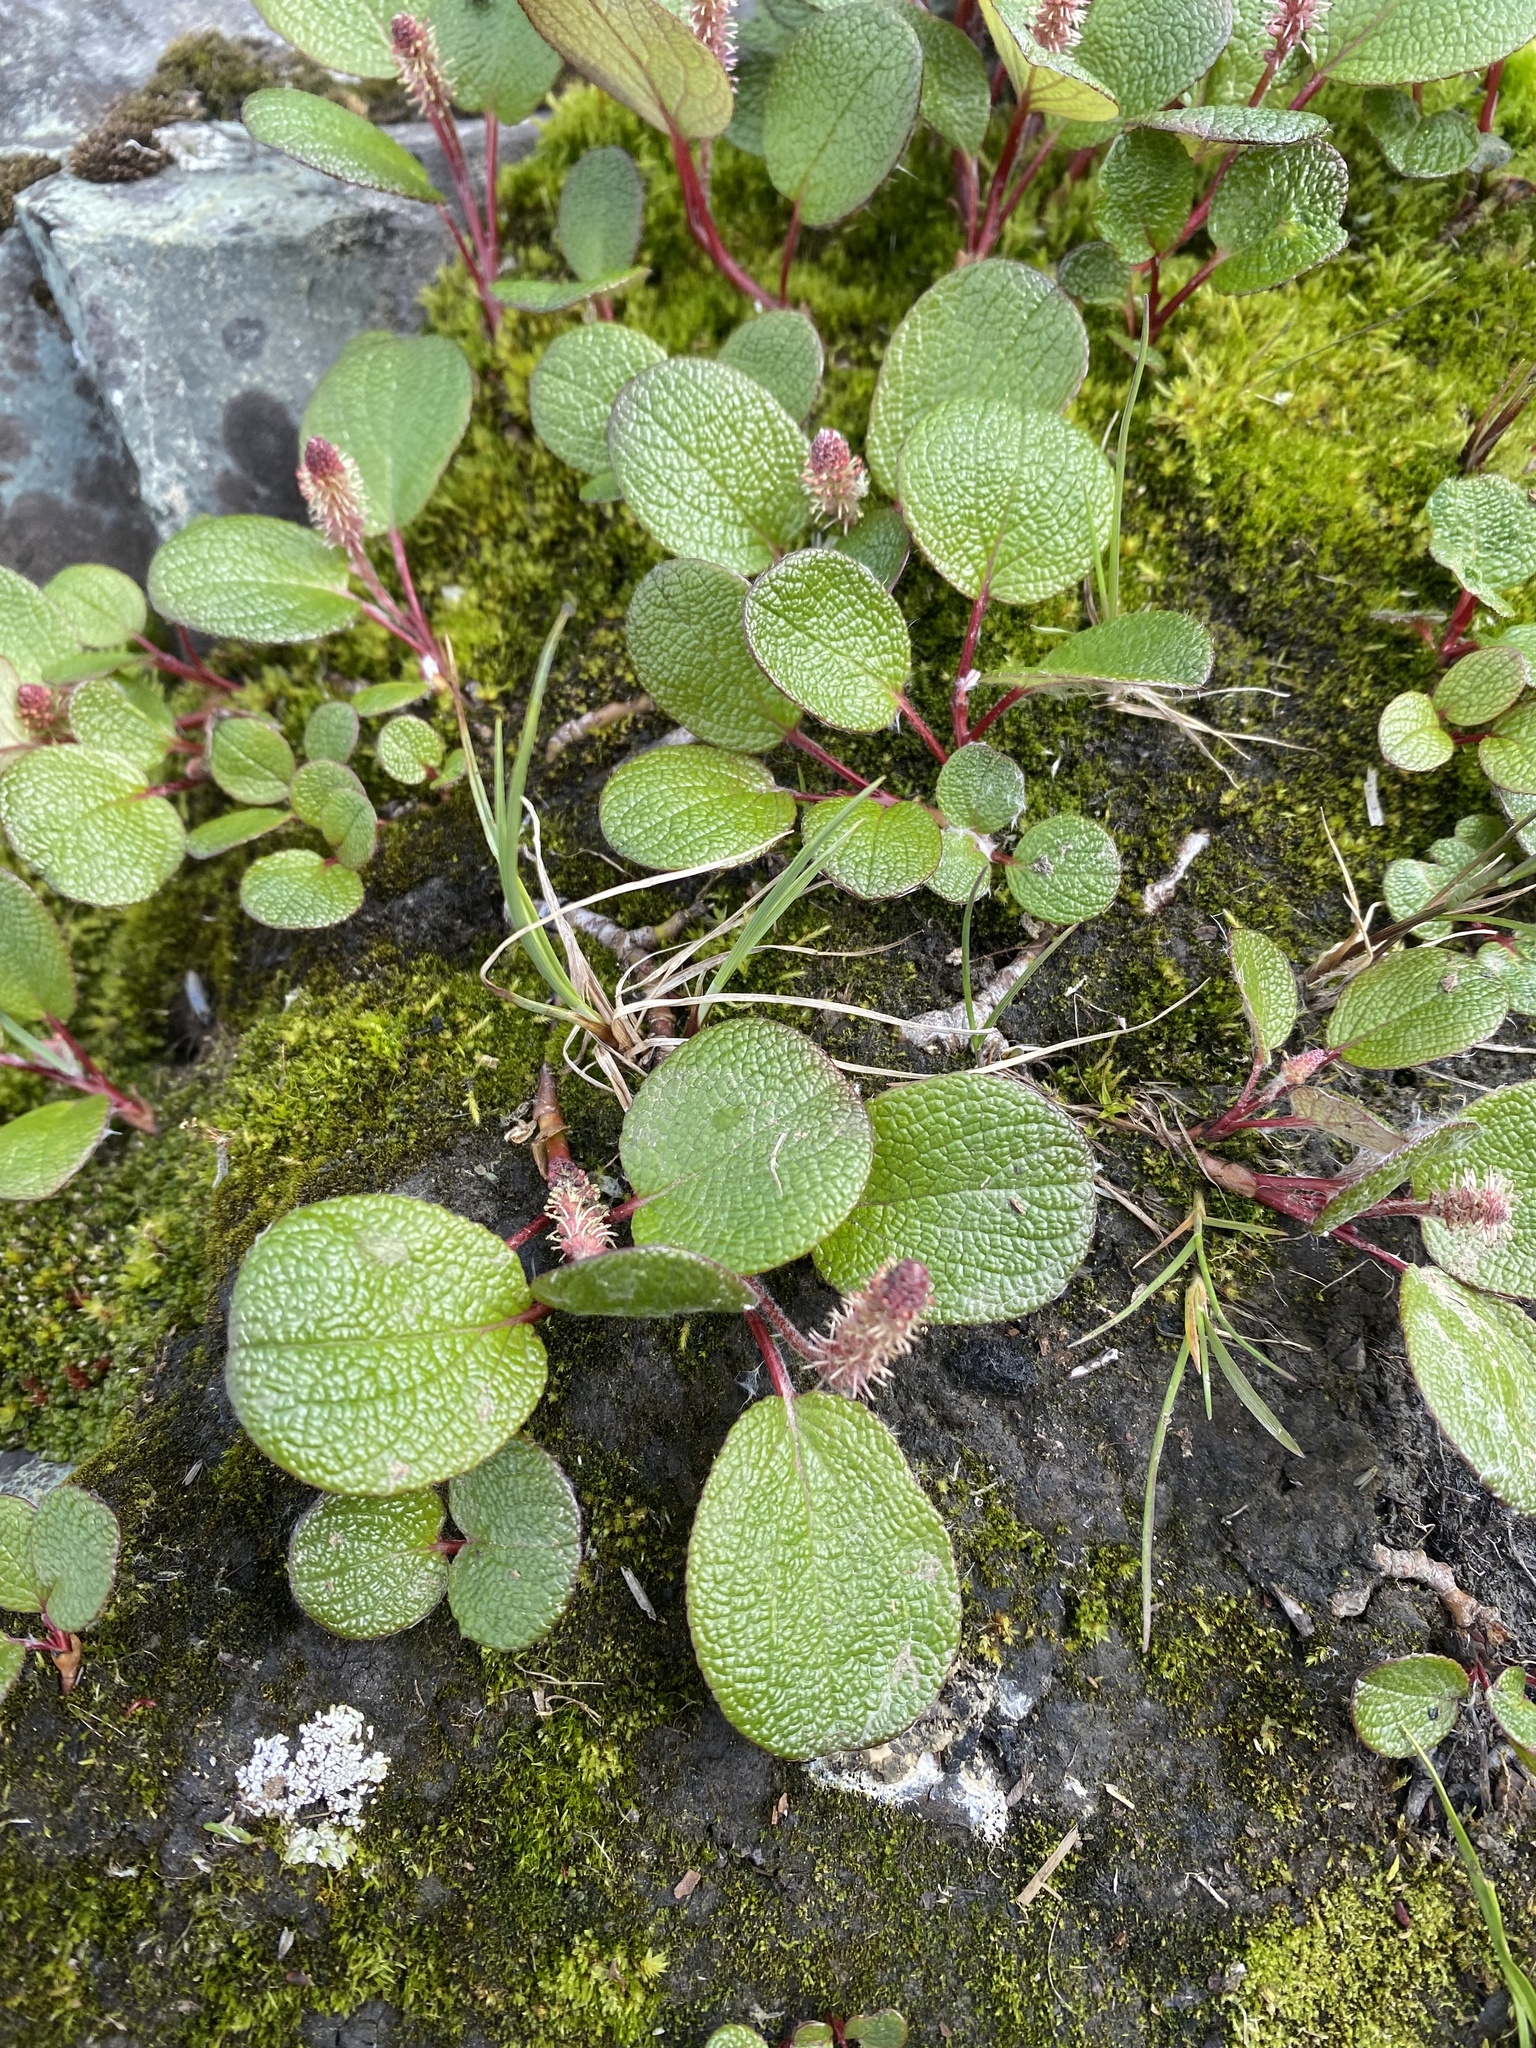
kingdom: Plantae
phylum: Tracheophyta
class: Magnoliopsida
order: Malpighiales
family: Salicaceae
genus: Salix
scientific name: Salix reticulata
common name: Net-leaved willow
